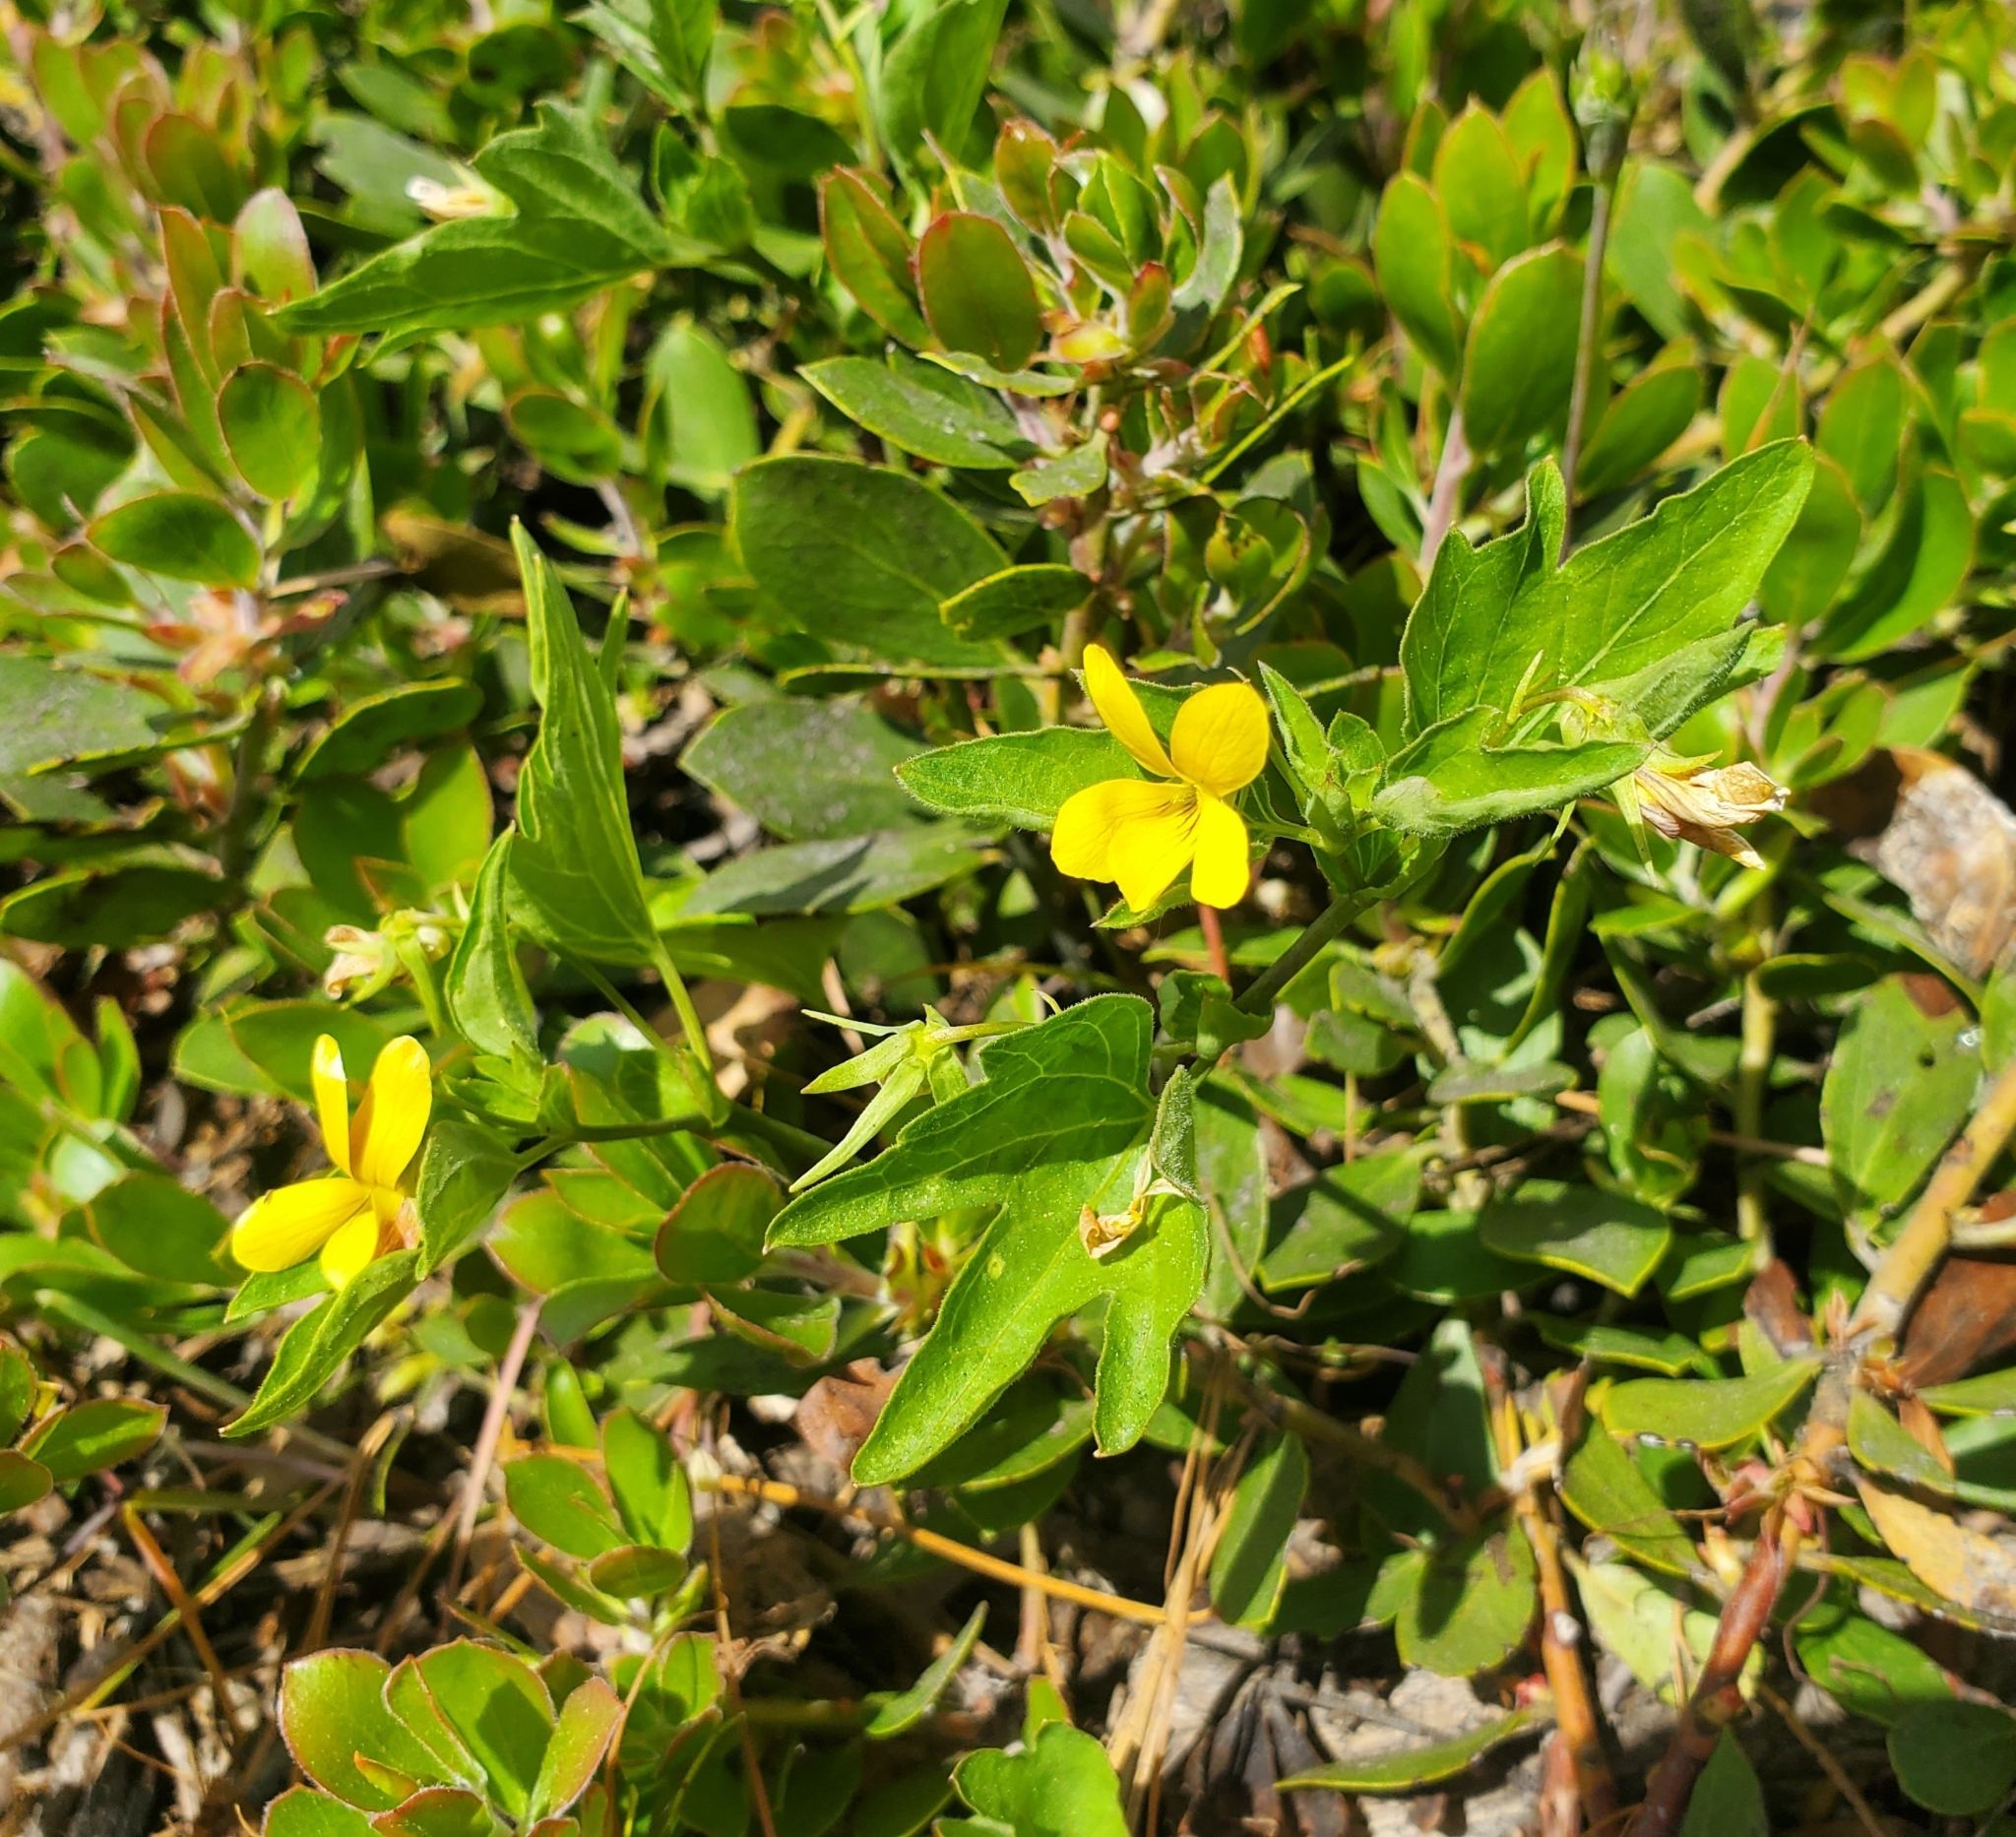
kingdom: Plantae
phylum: Tracheophyta
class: Magnoliopsida
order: Malpighiales
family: Violaceae
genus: Viola
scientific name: Viola lobata
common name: Pine violet
